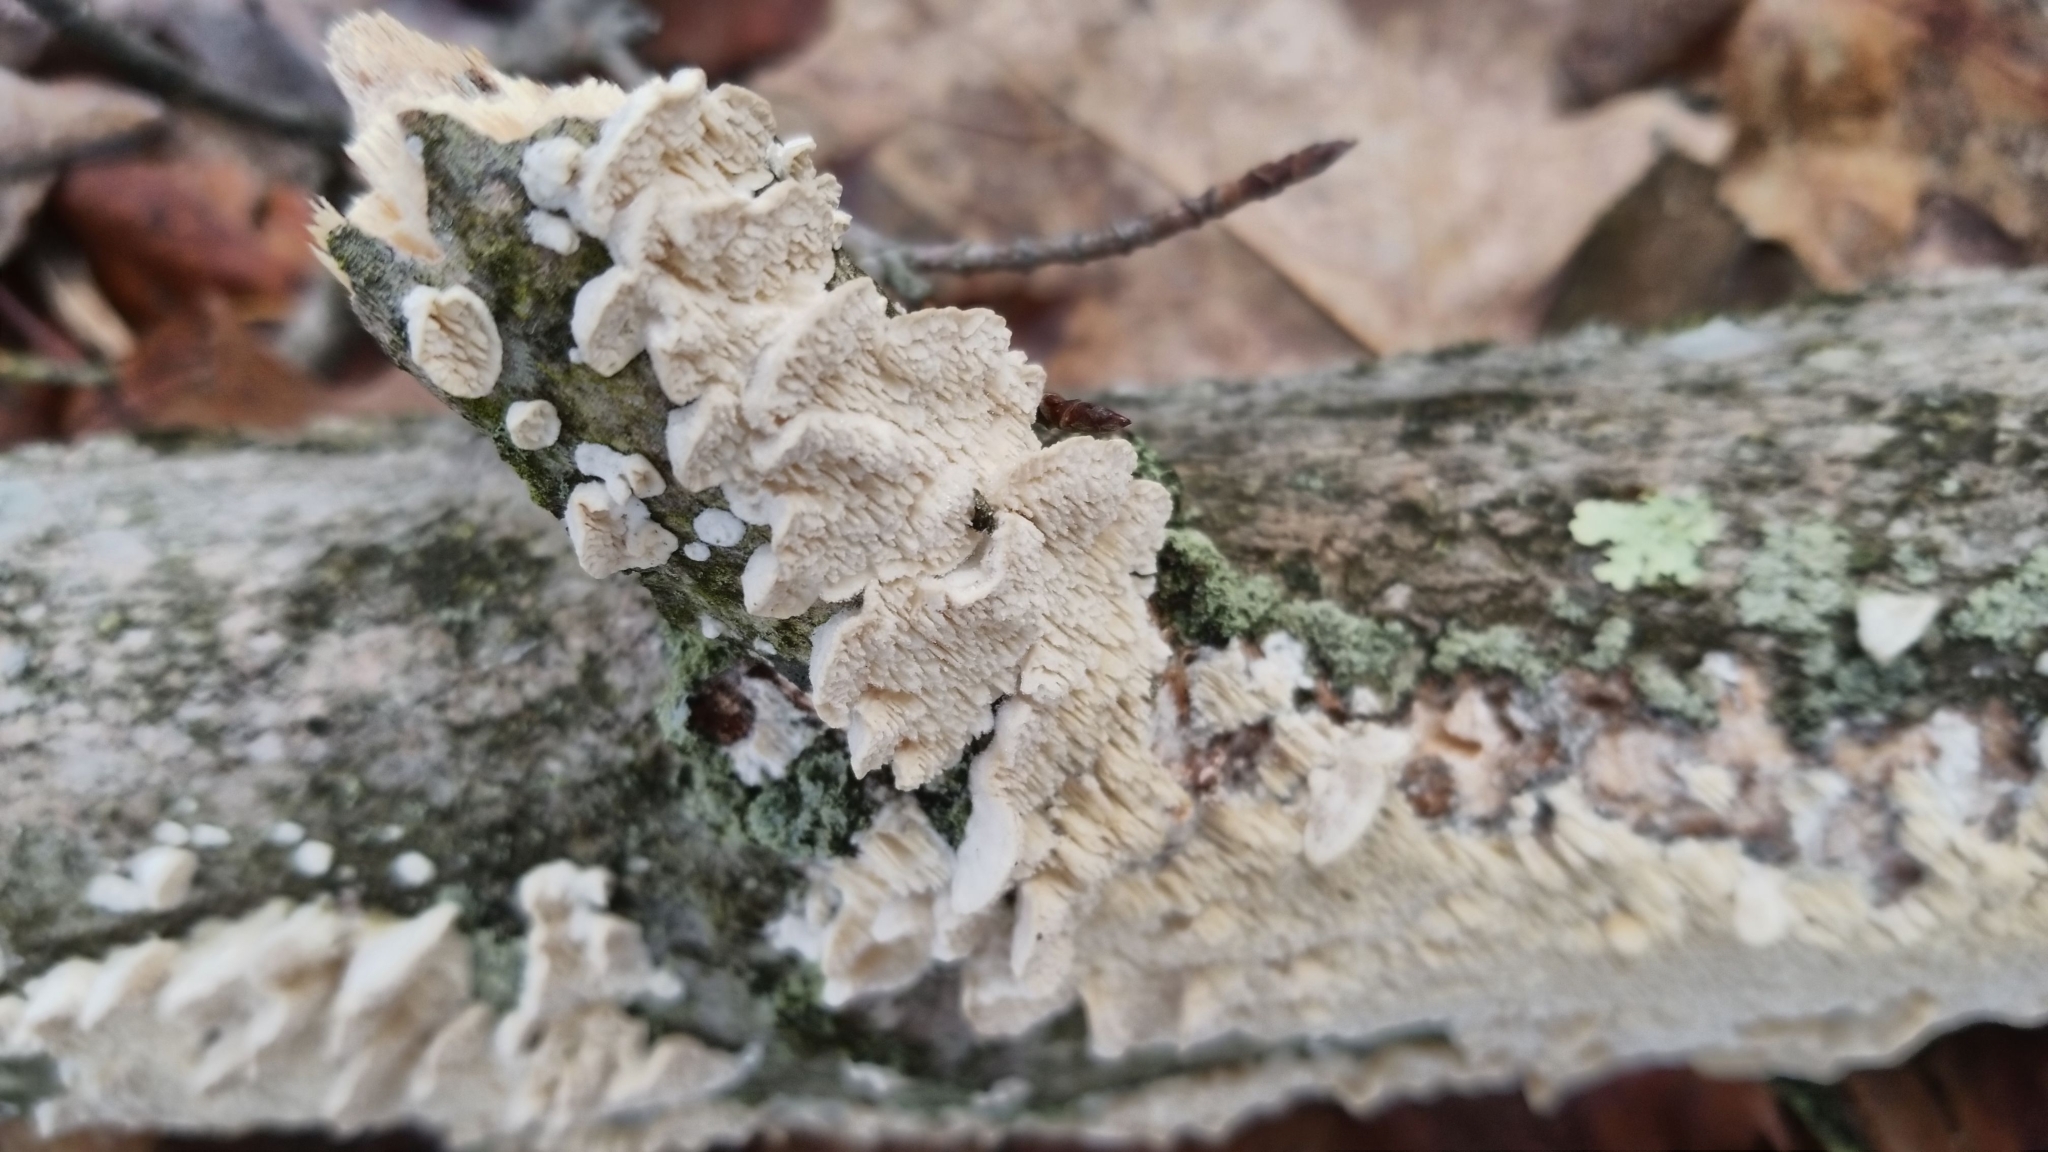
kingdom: Fungi
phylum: Basidiomycota
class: Agaricomycetes
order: Polyporales
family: Irpicaceae
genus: Irpex
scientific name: Irpex lacteus
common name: Milk-white toothed polypore
